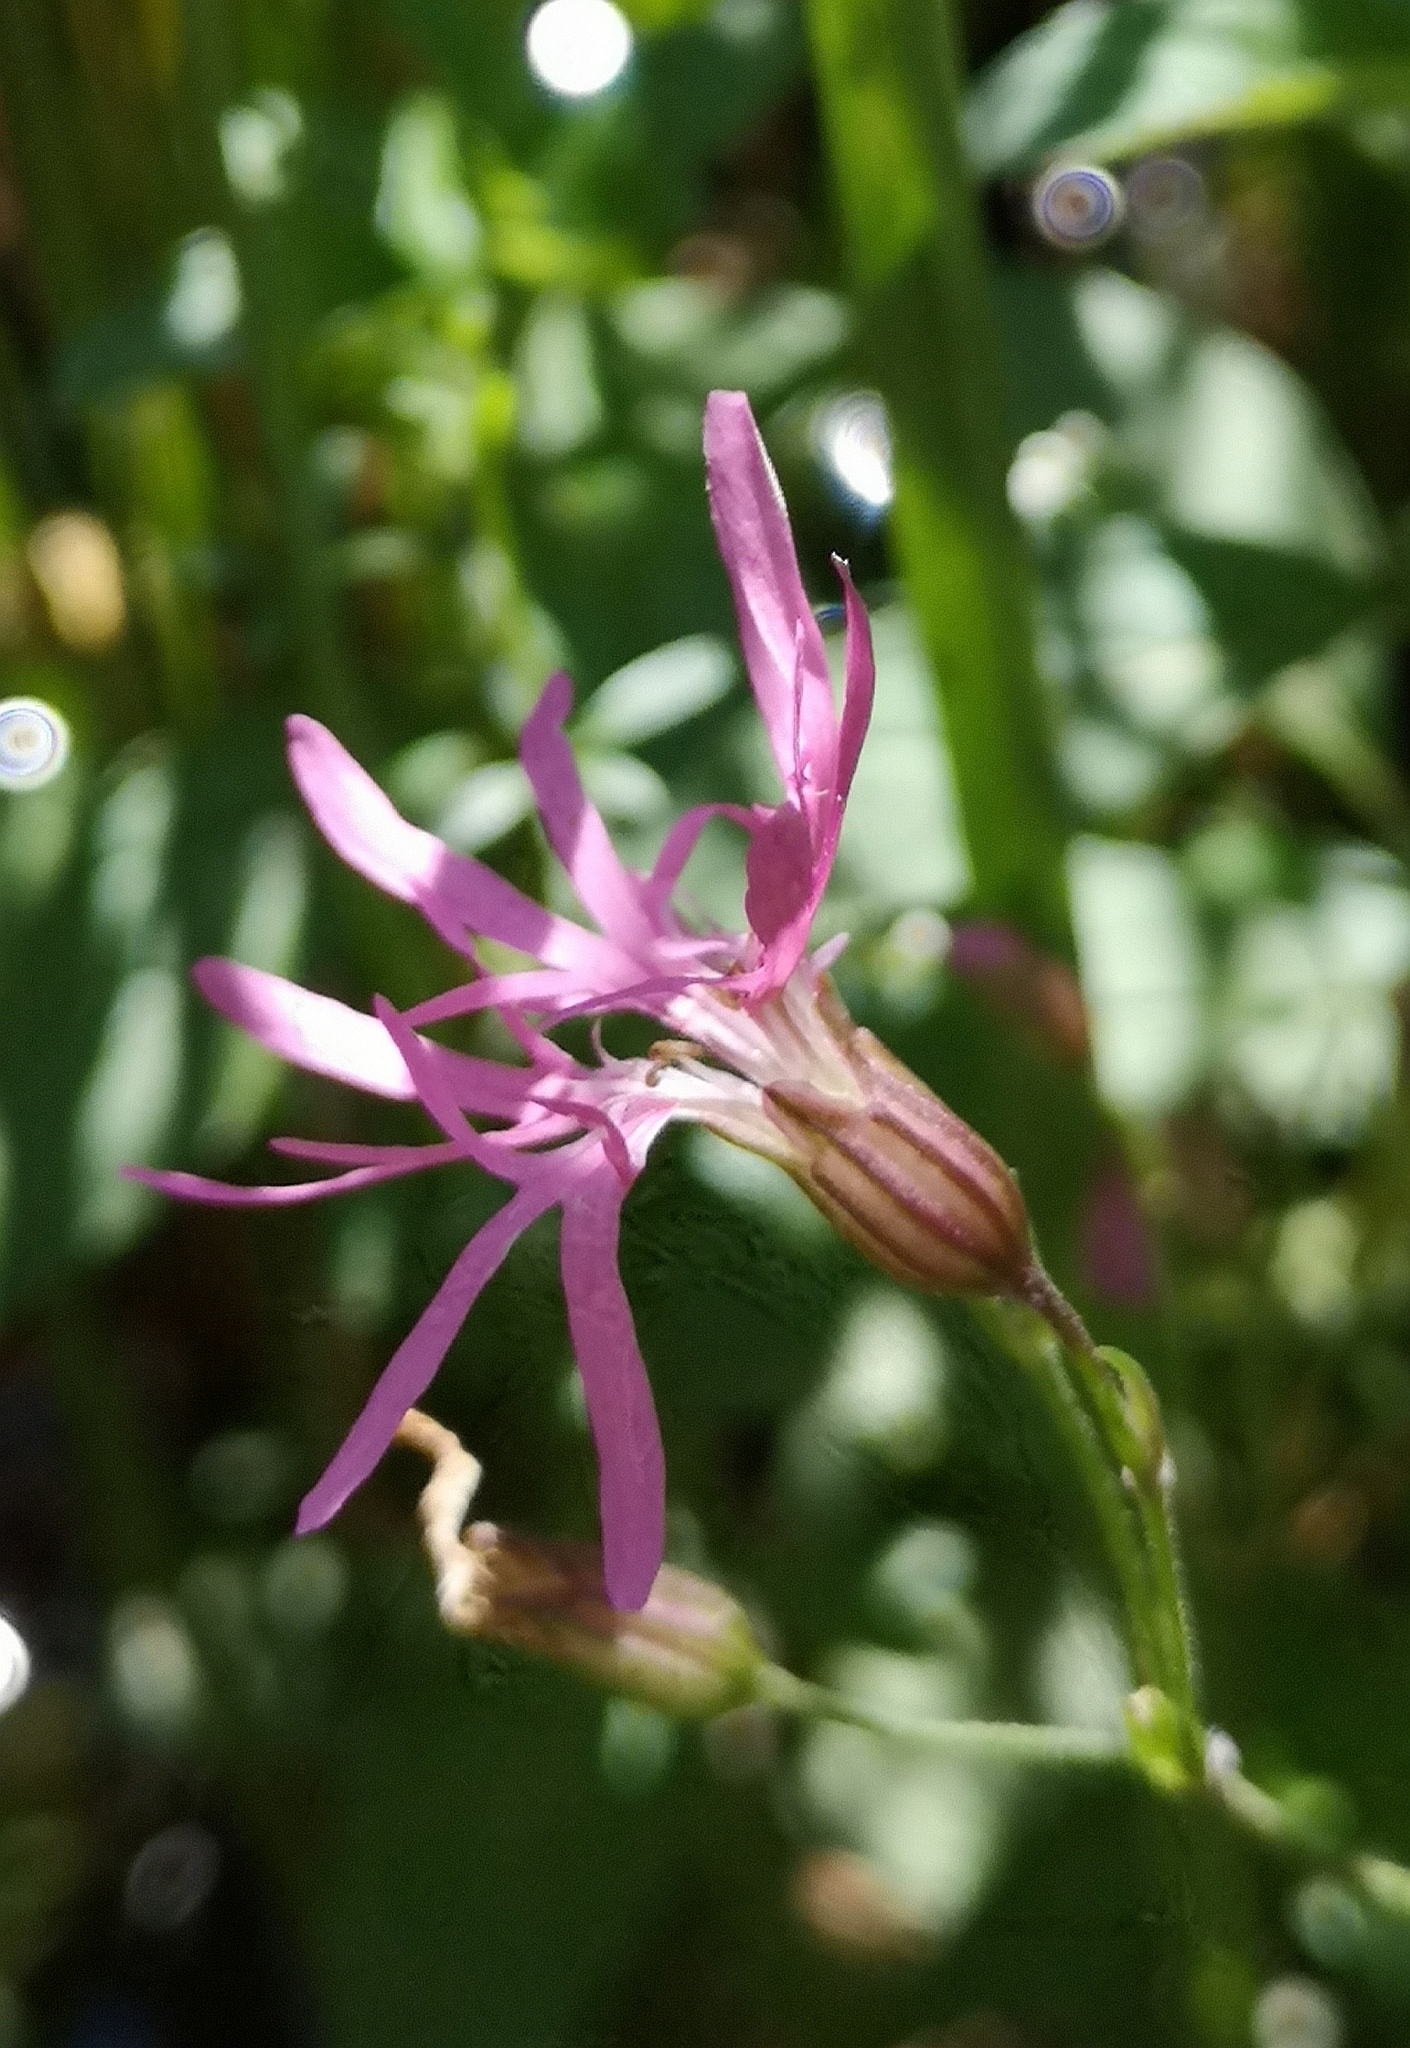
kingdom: Plantae
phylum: Tracheophyta
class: Magnoliopsida
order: Caryophyllales
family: Caryophyllaceae
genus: Silene
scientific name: Silene flos-cuculi
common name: Ragged-robin
